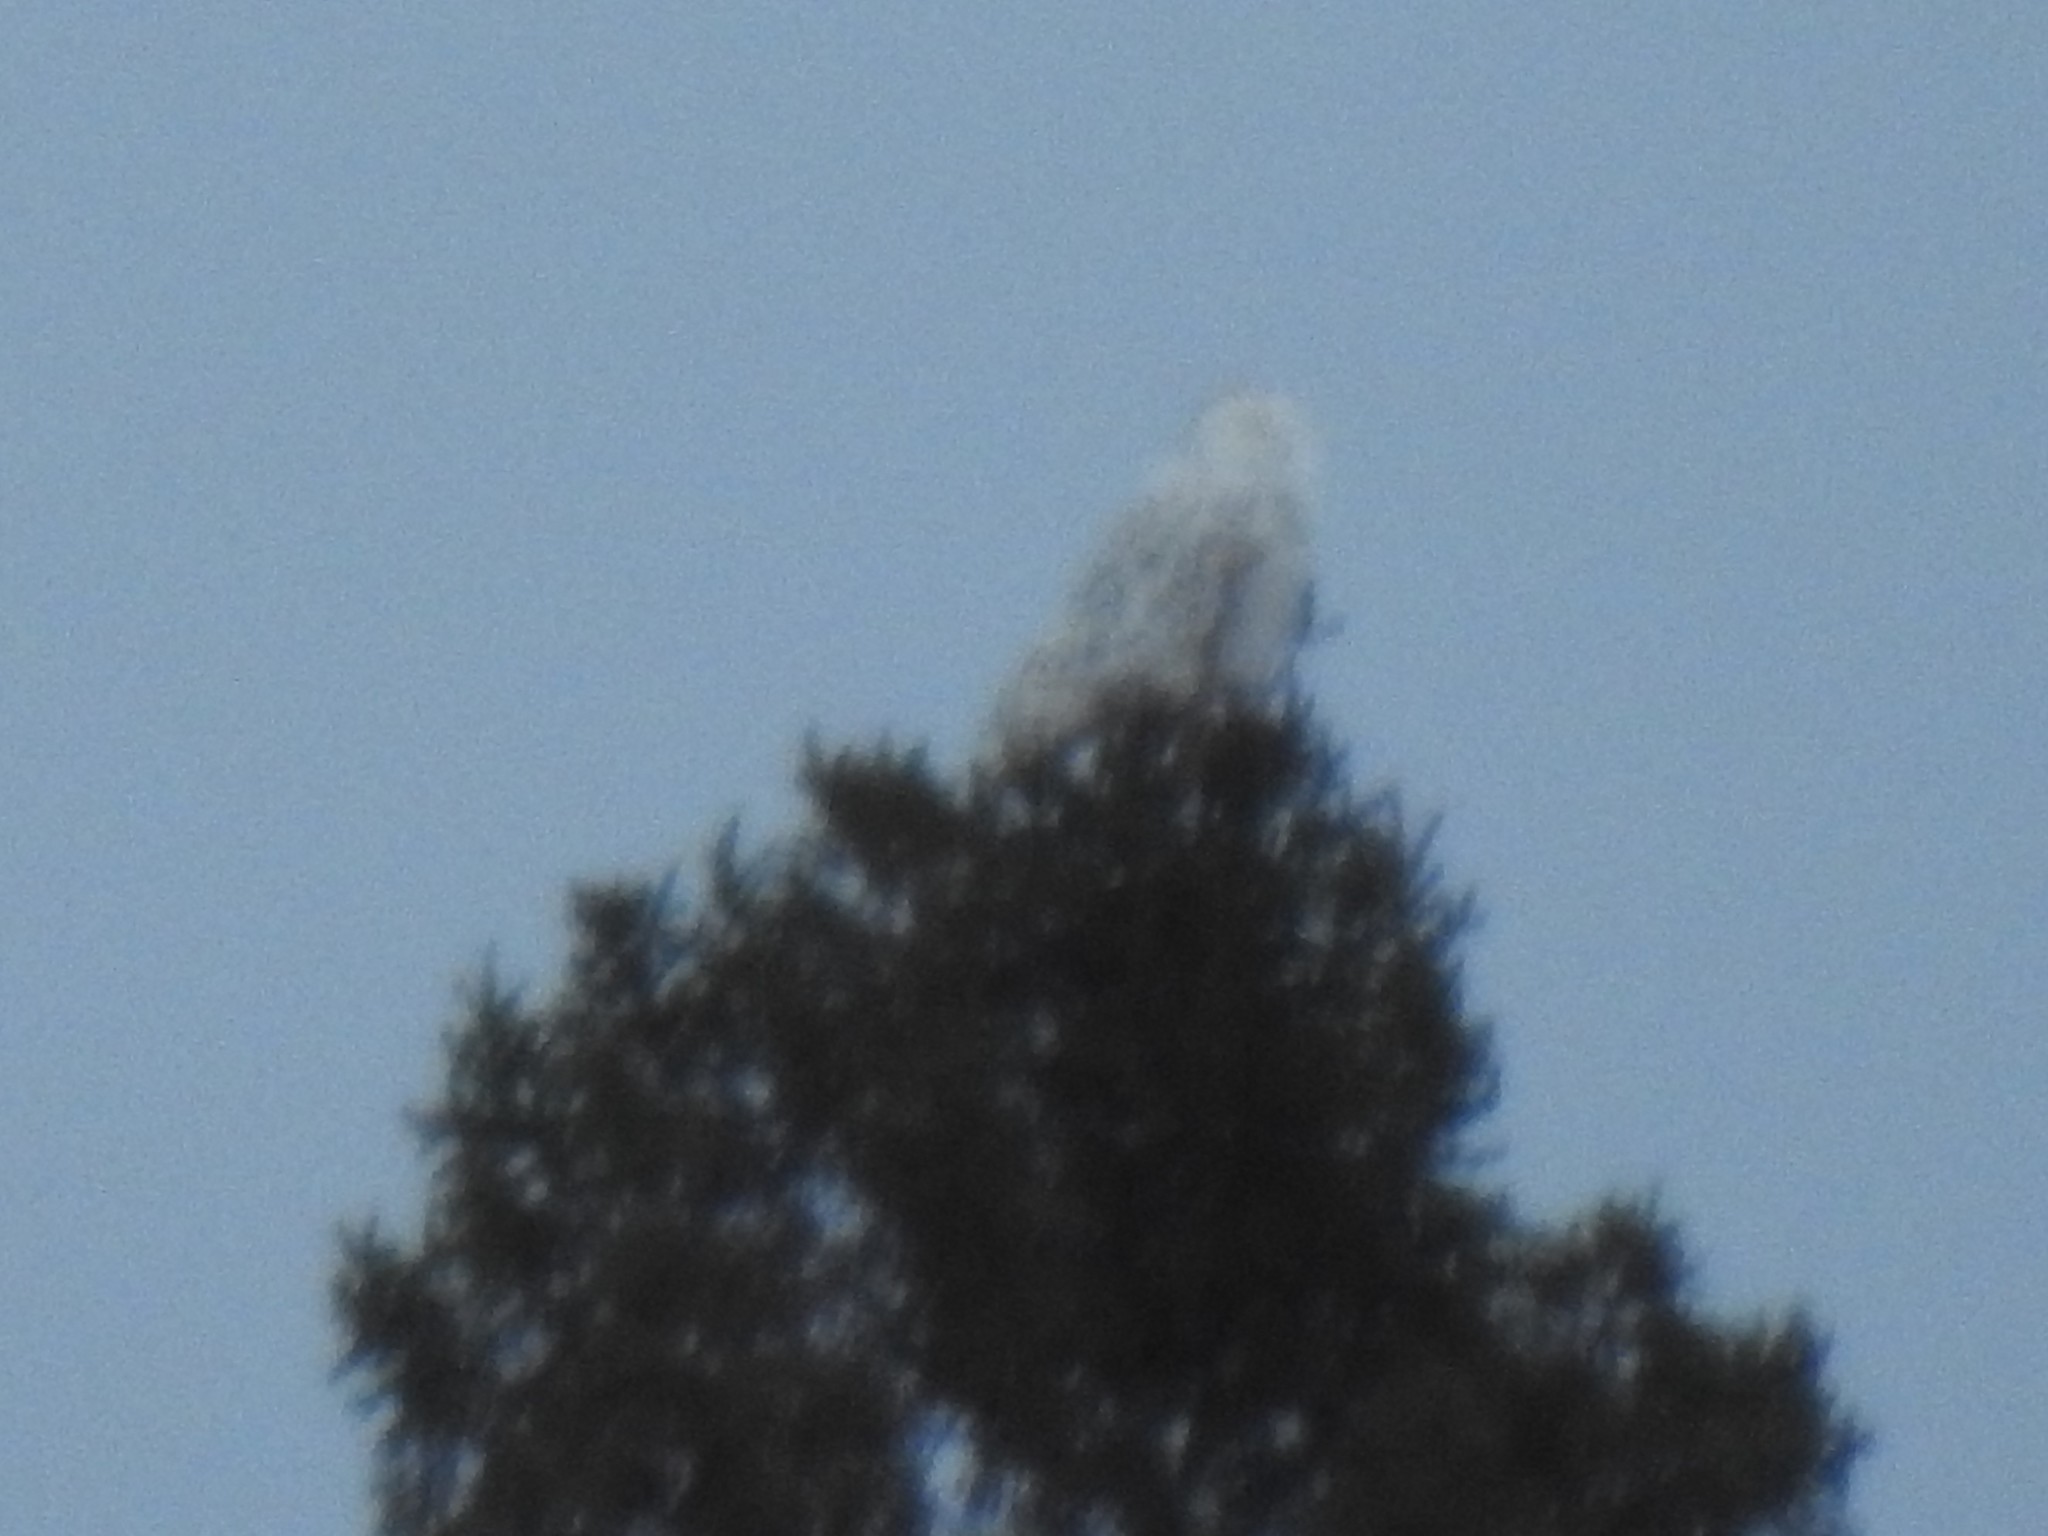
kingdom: Animalia
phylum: Chordata
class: Aves
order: Strigiformes
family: Strigidae
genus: Bubo
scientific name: Bubo scandiacus
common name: Snowy owl
